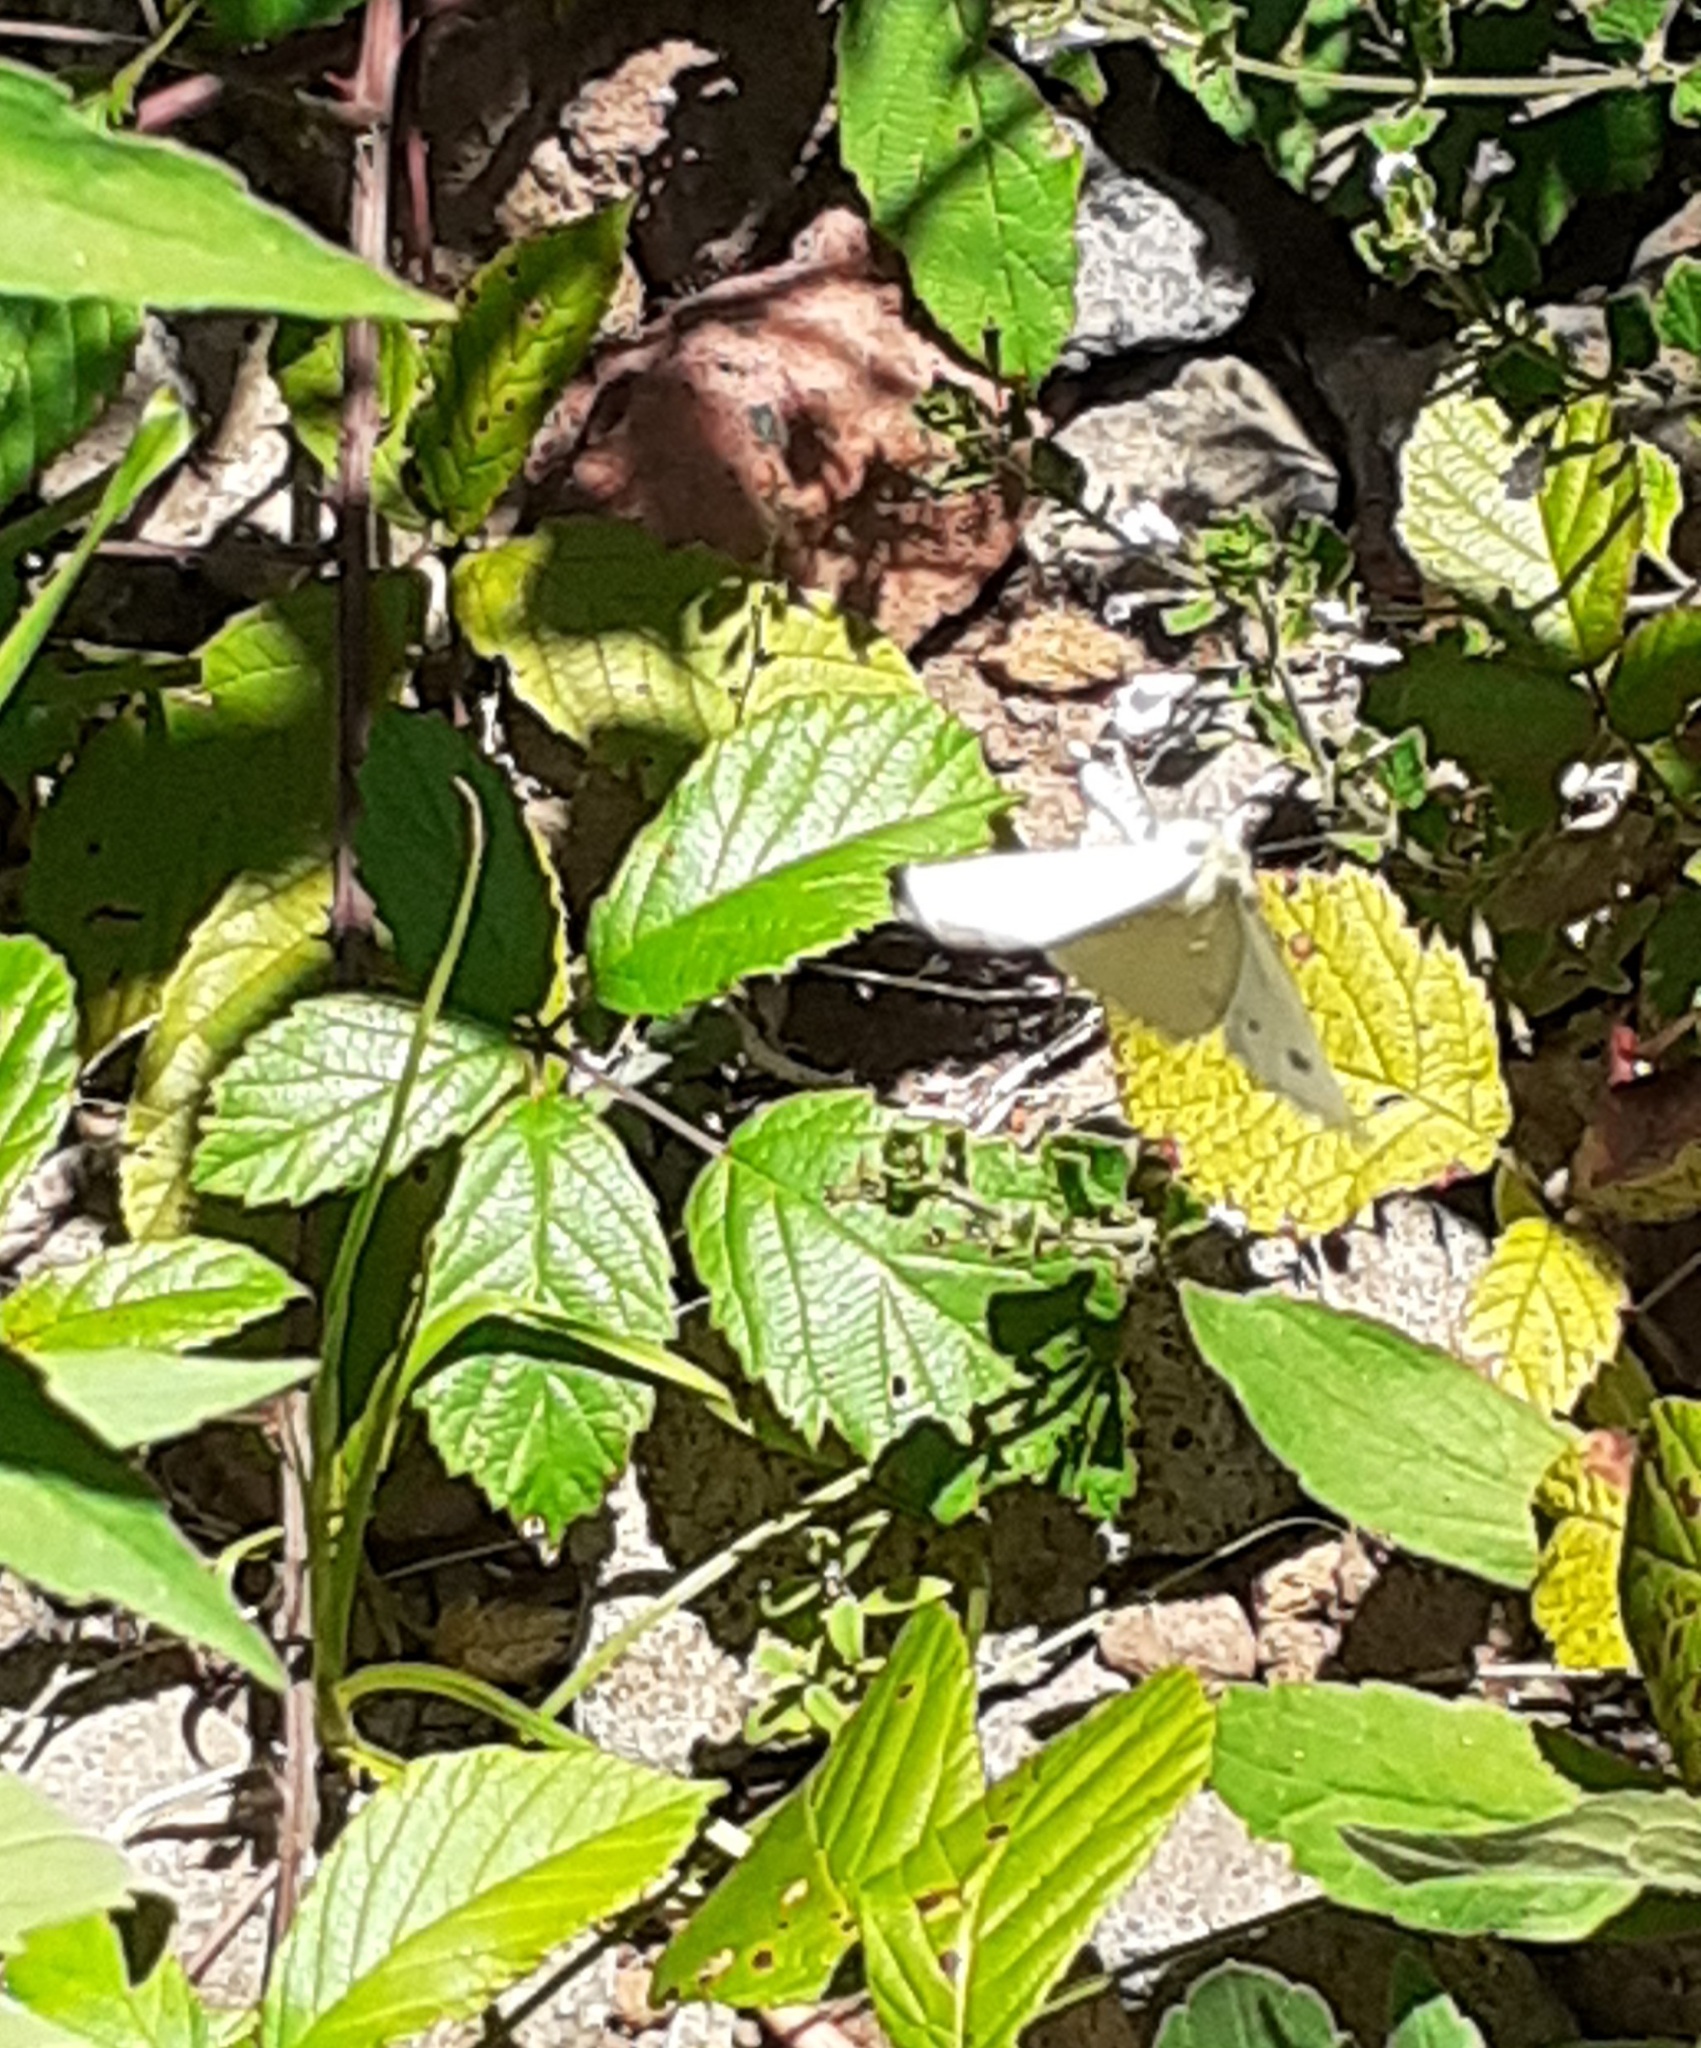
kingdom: Animalia
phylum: Arthropoda
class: Insecta
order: Lepidoptera
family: Pieridae
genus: Pieris
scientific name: Pieris rapae
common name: Small white
